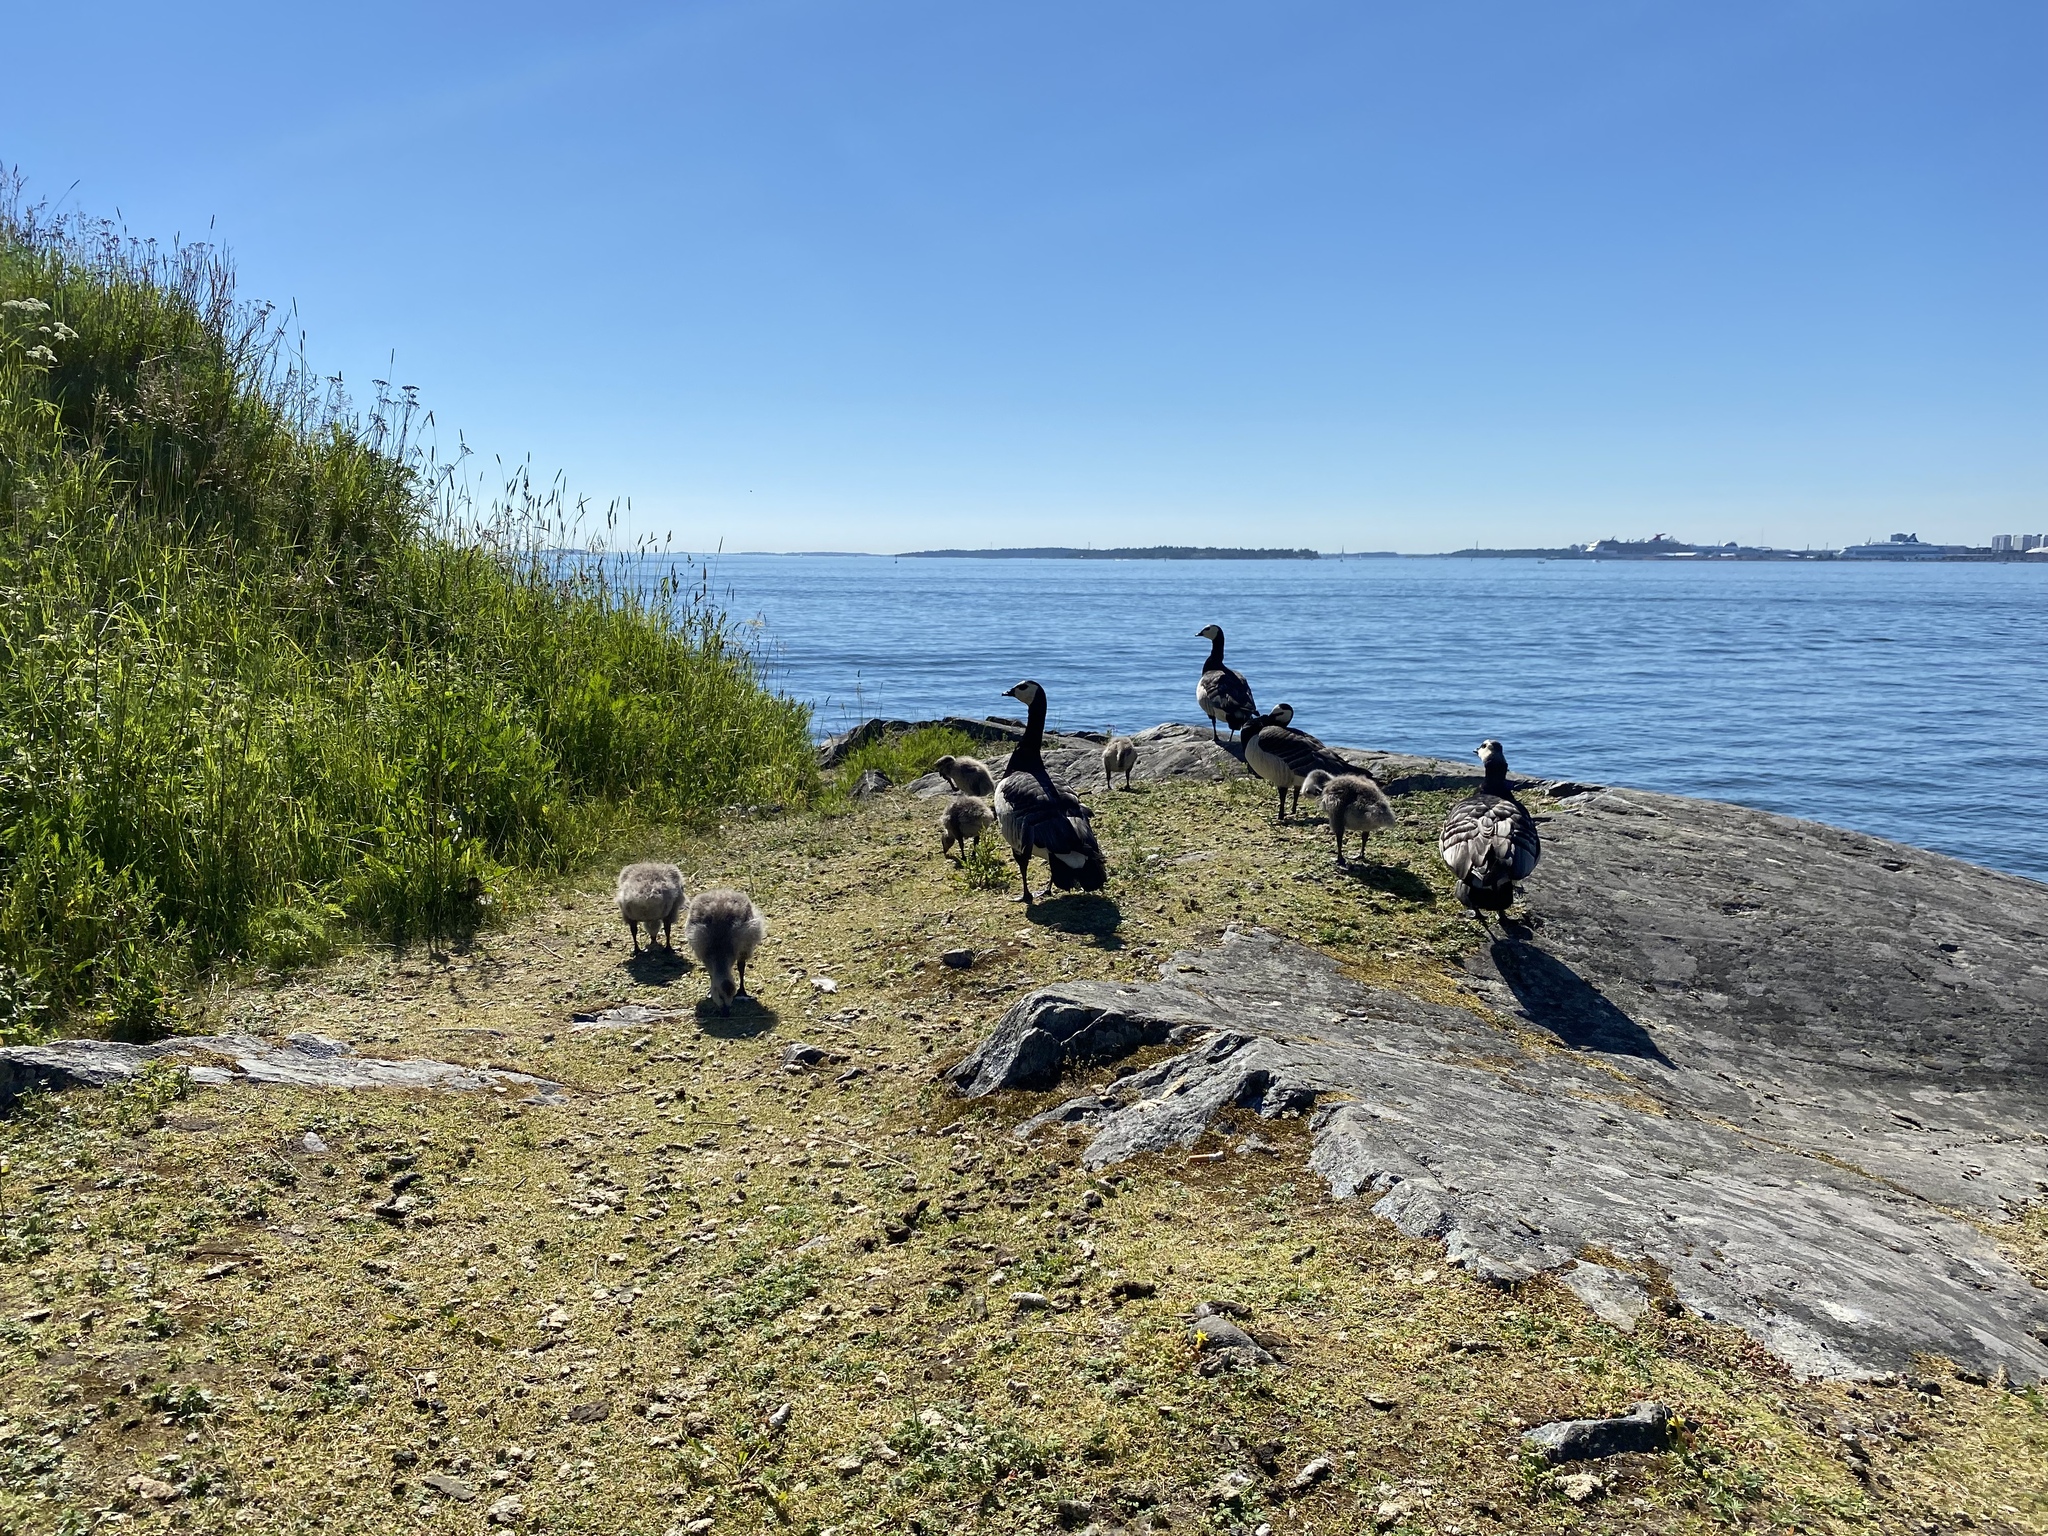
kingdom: Animalia
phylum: Chordata
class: Aves
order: Anseriformes
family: Anatidae
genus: Branta
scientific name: Branta leucopsis
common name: Barnacle goose
